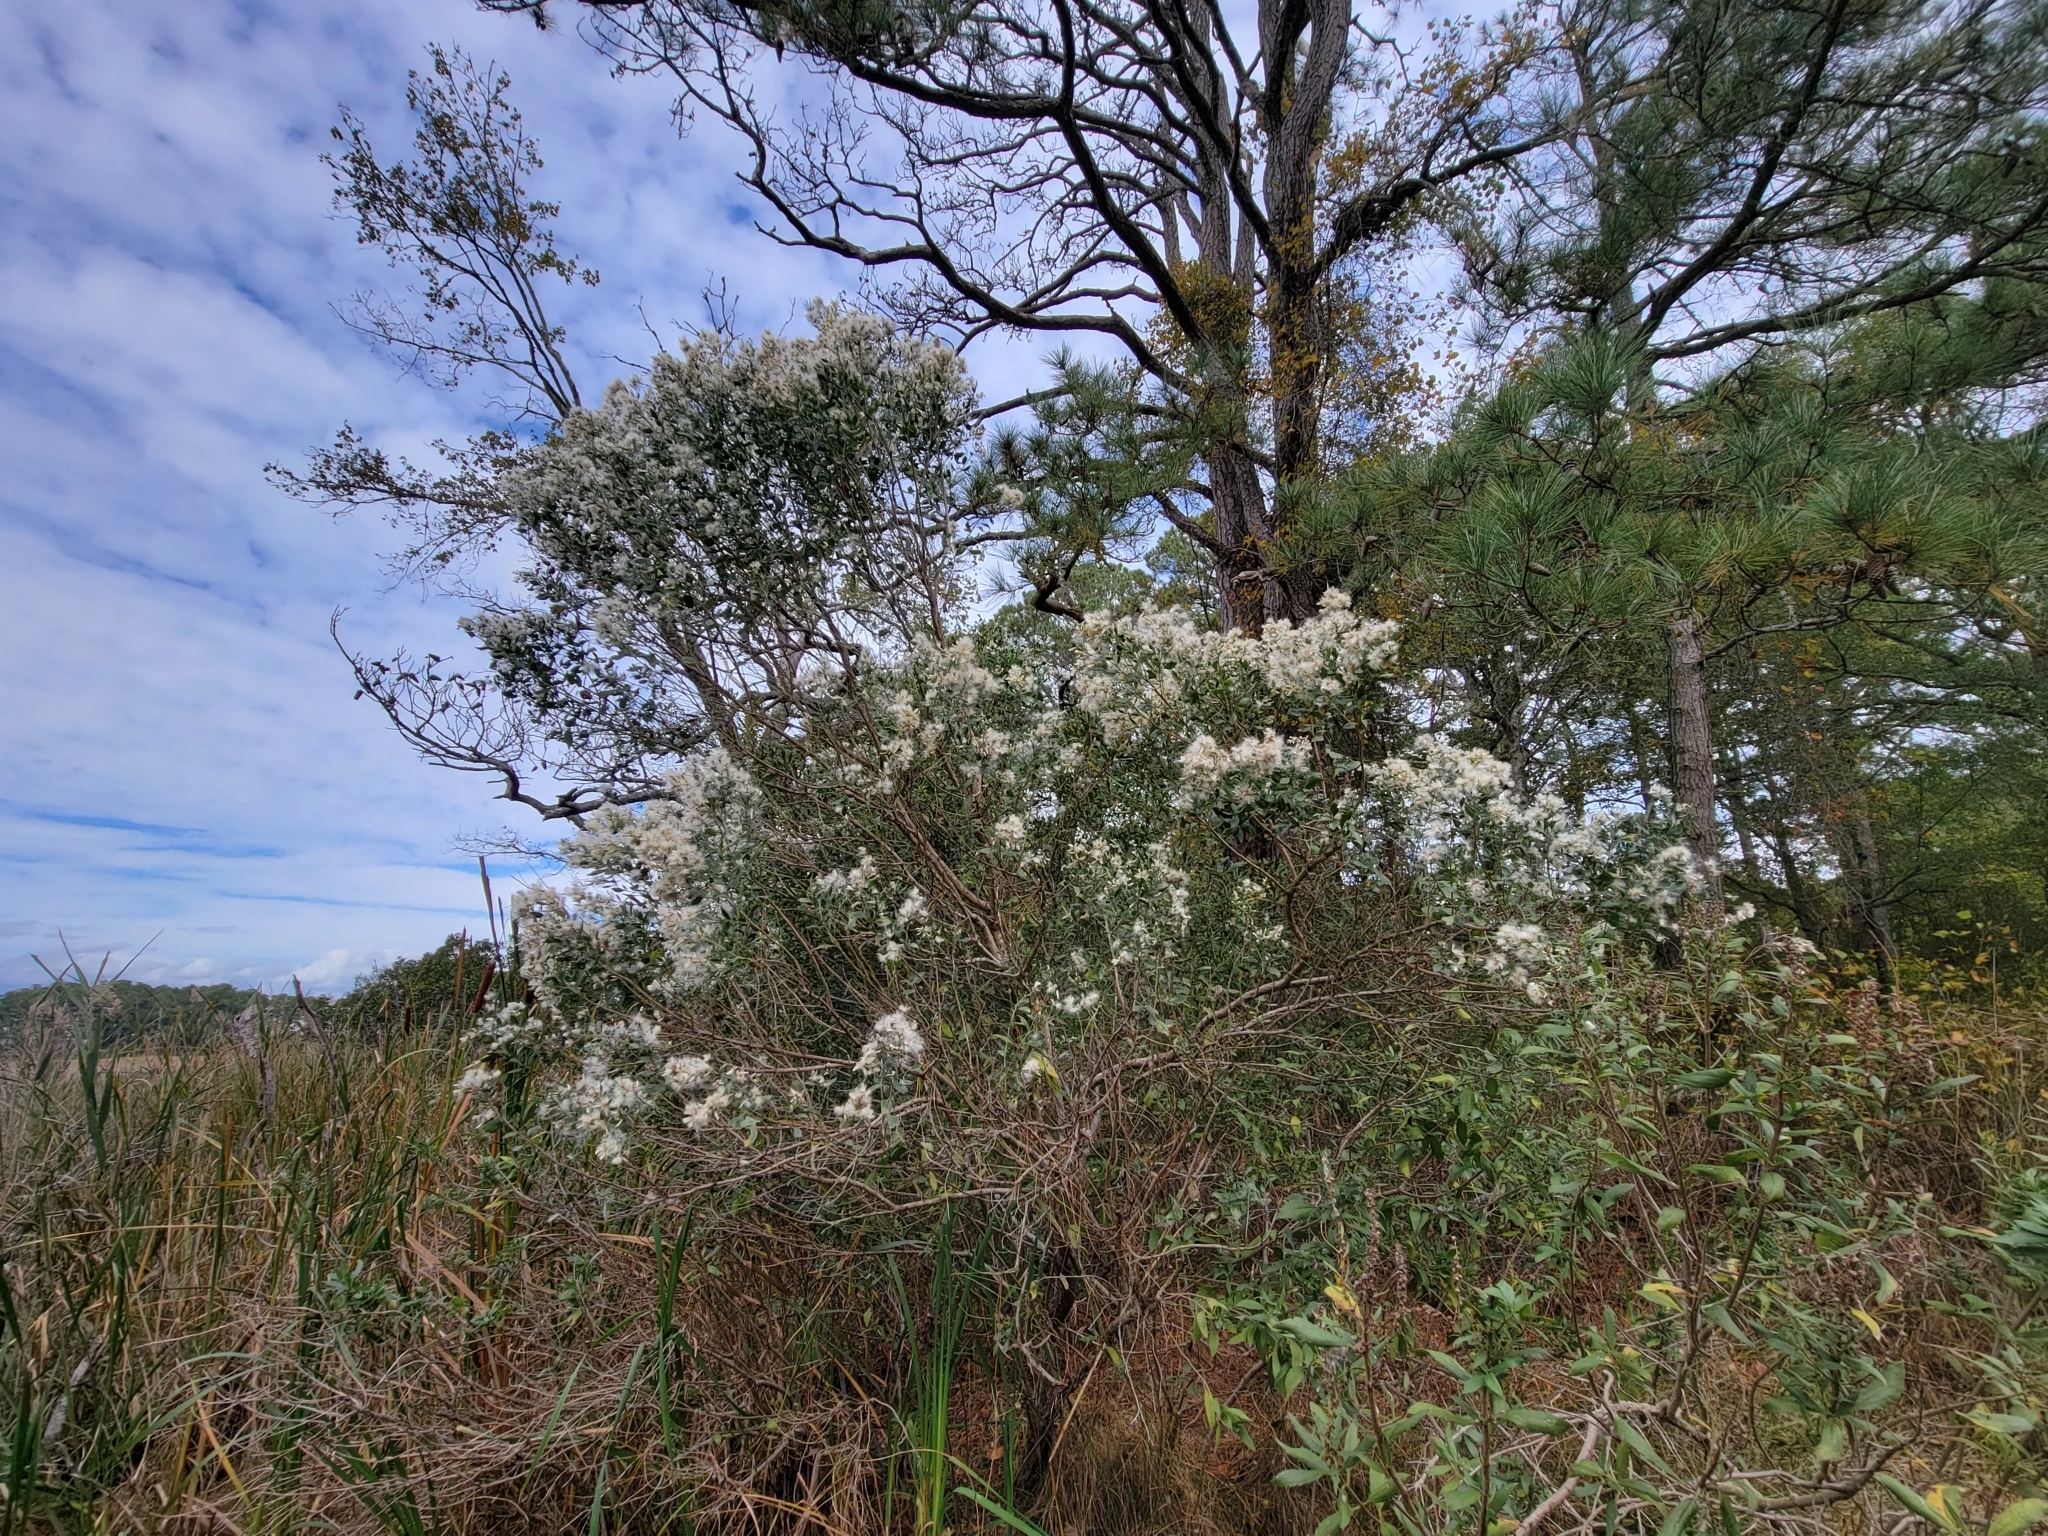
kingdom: Plantae
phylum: Tracheophyta
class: Magnoliopsida
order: Asterales
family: Asteraceae
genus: Baccharis
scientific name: Baccharis halimifolia
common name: Eastern baccharis
